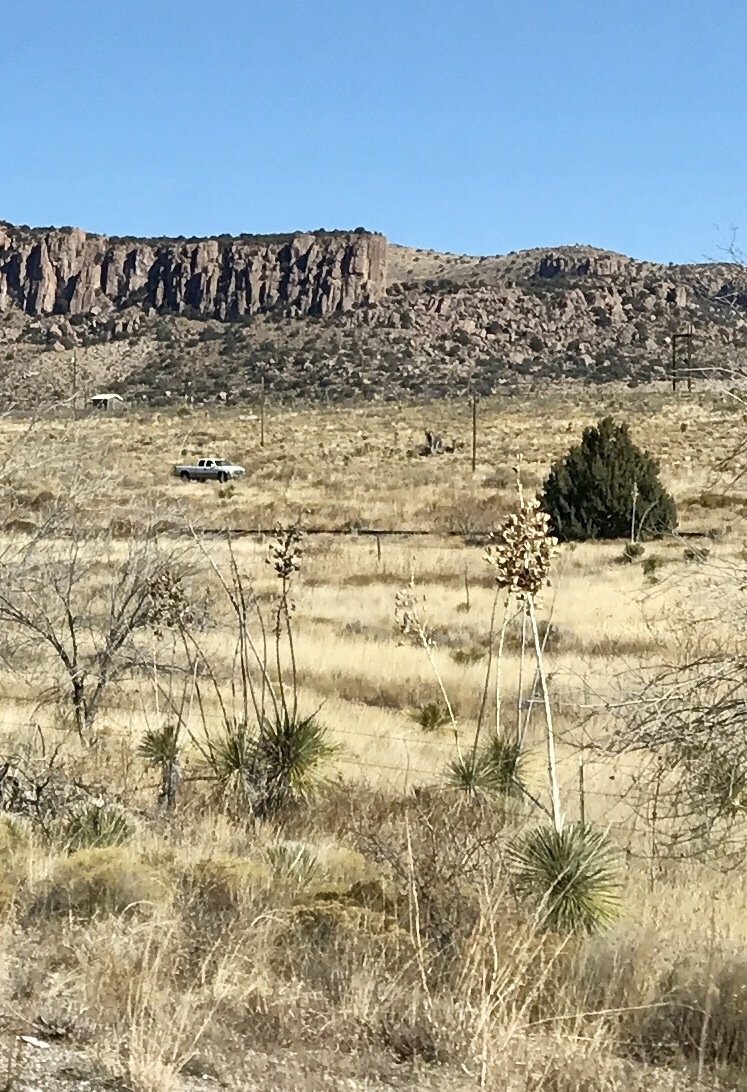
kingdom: Plantae
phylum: Tracheophyta
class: Liliopsida
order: Asparagales
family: Asparagaceae
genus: Yucca
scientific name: Yucca elata
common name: Palmella
